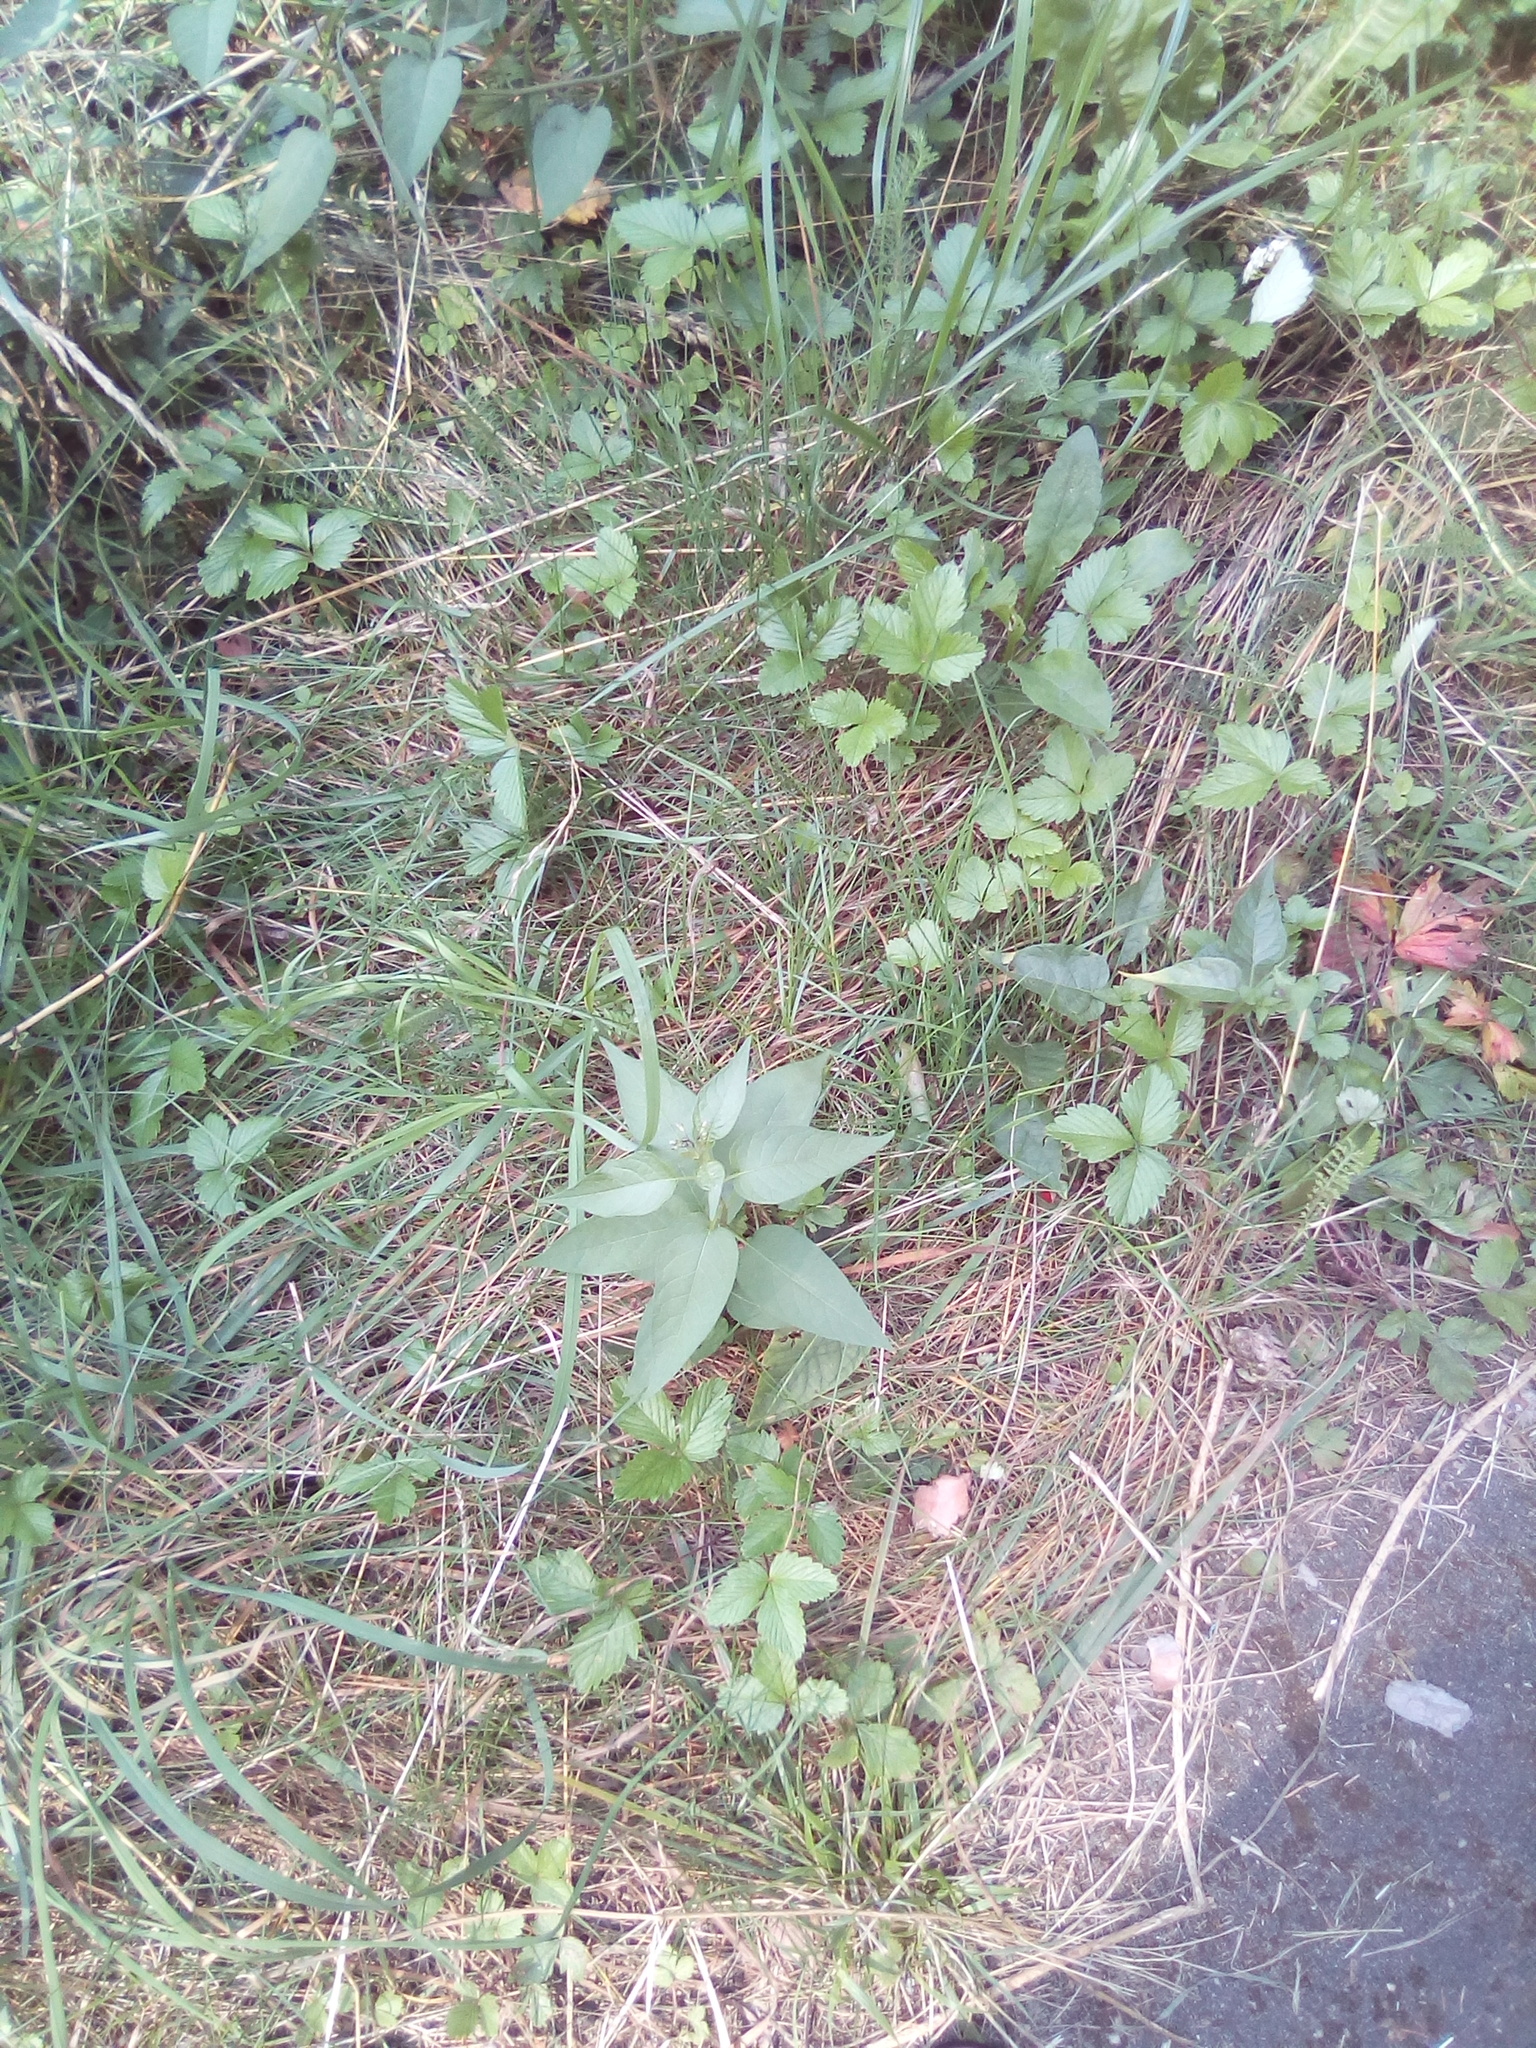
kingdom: Plantae
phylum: Tracheophyta
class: Magnoliopsida
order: Solanales
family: Solanaceae
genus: Solanum
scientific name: Solanum dulcamara
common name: Climbing nightshade
